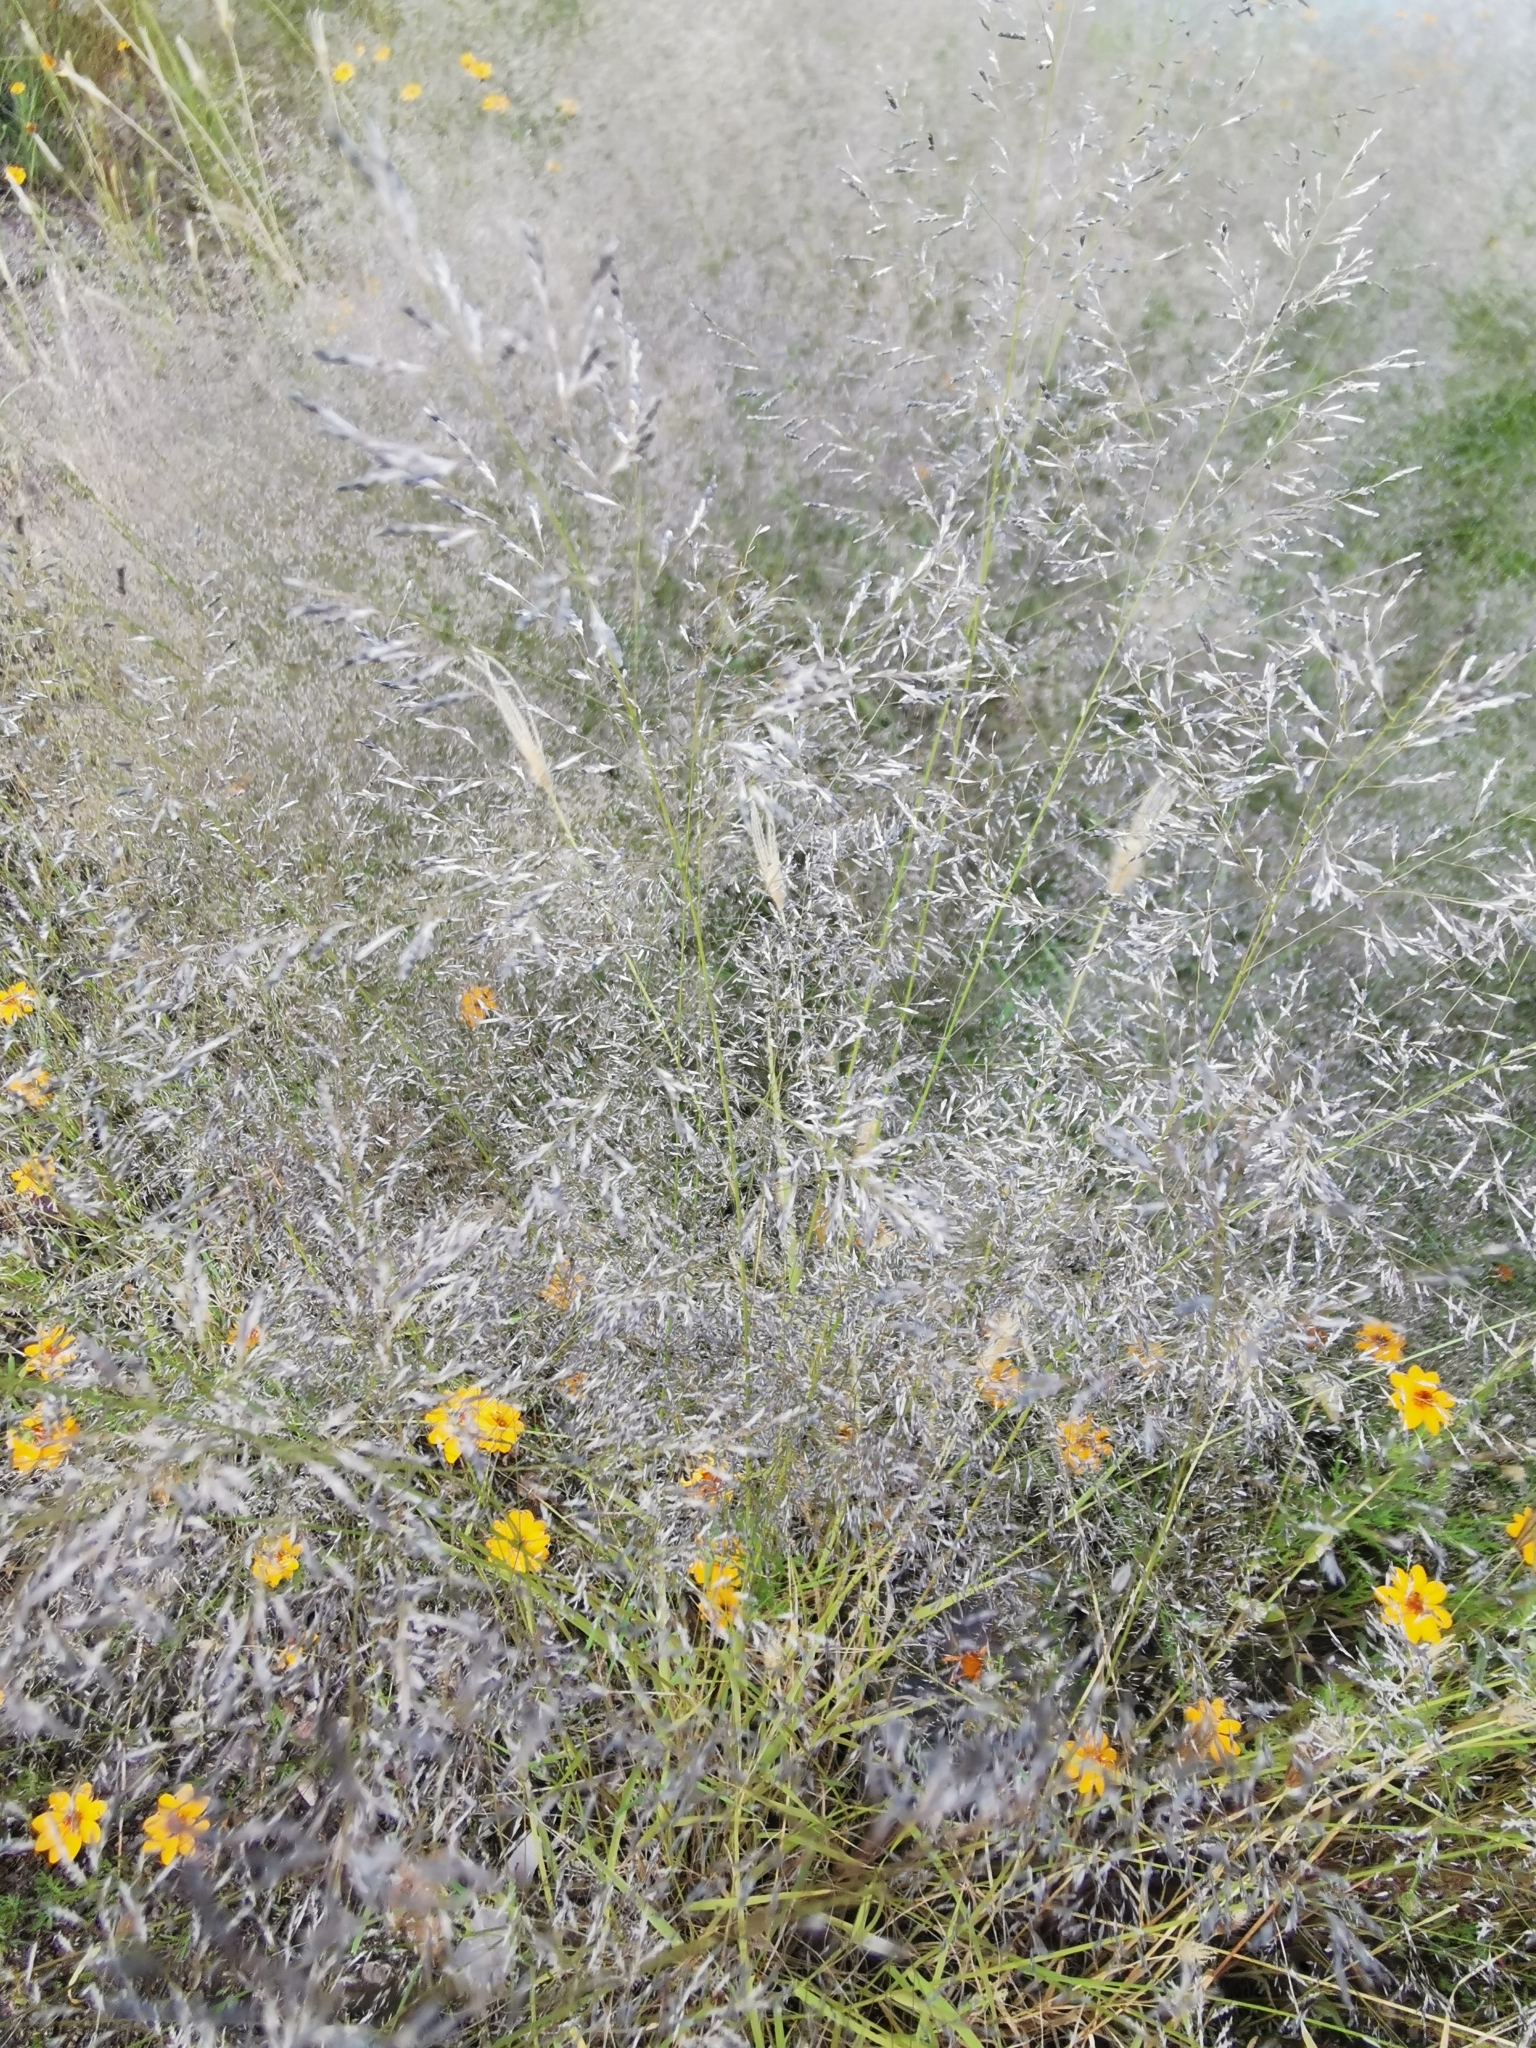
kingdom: Plantae
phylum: Tracheophyta
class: Liliopsida
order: Poales
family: Poaceae
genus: Eragrostis
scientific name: Eragrostis lehmanniana
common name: Lehmann lovegrass
